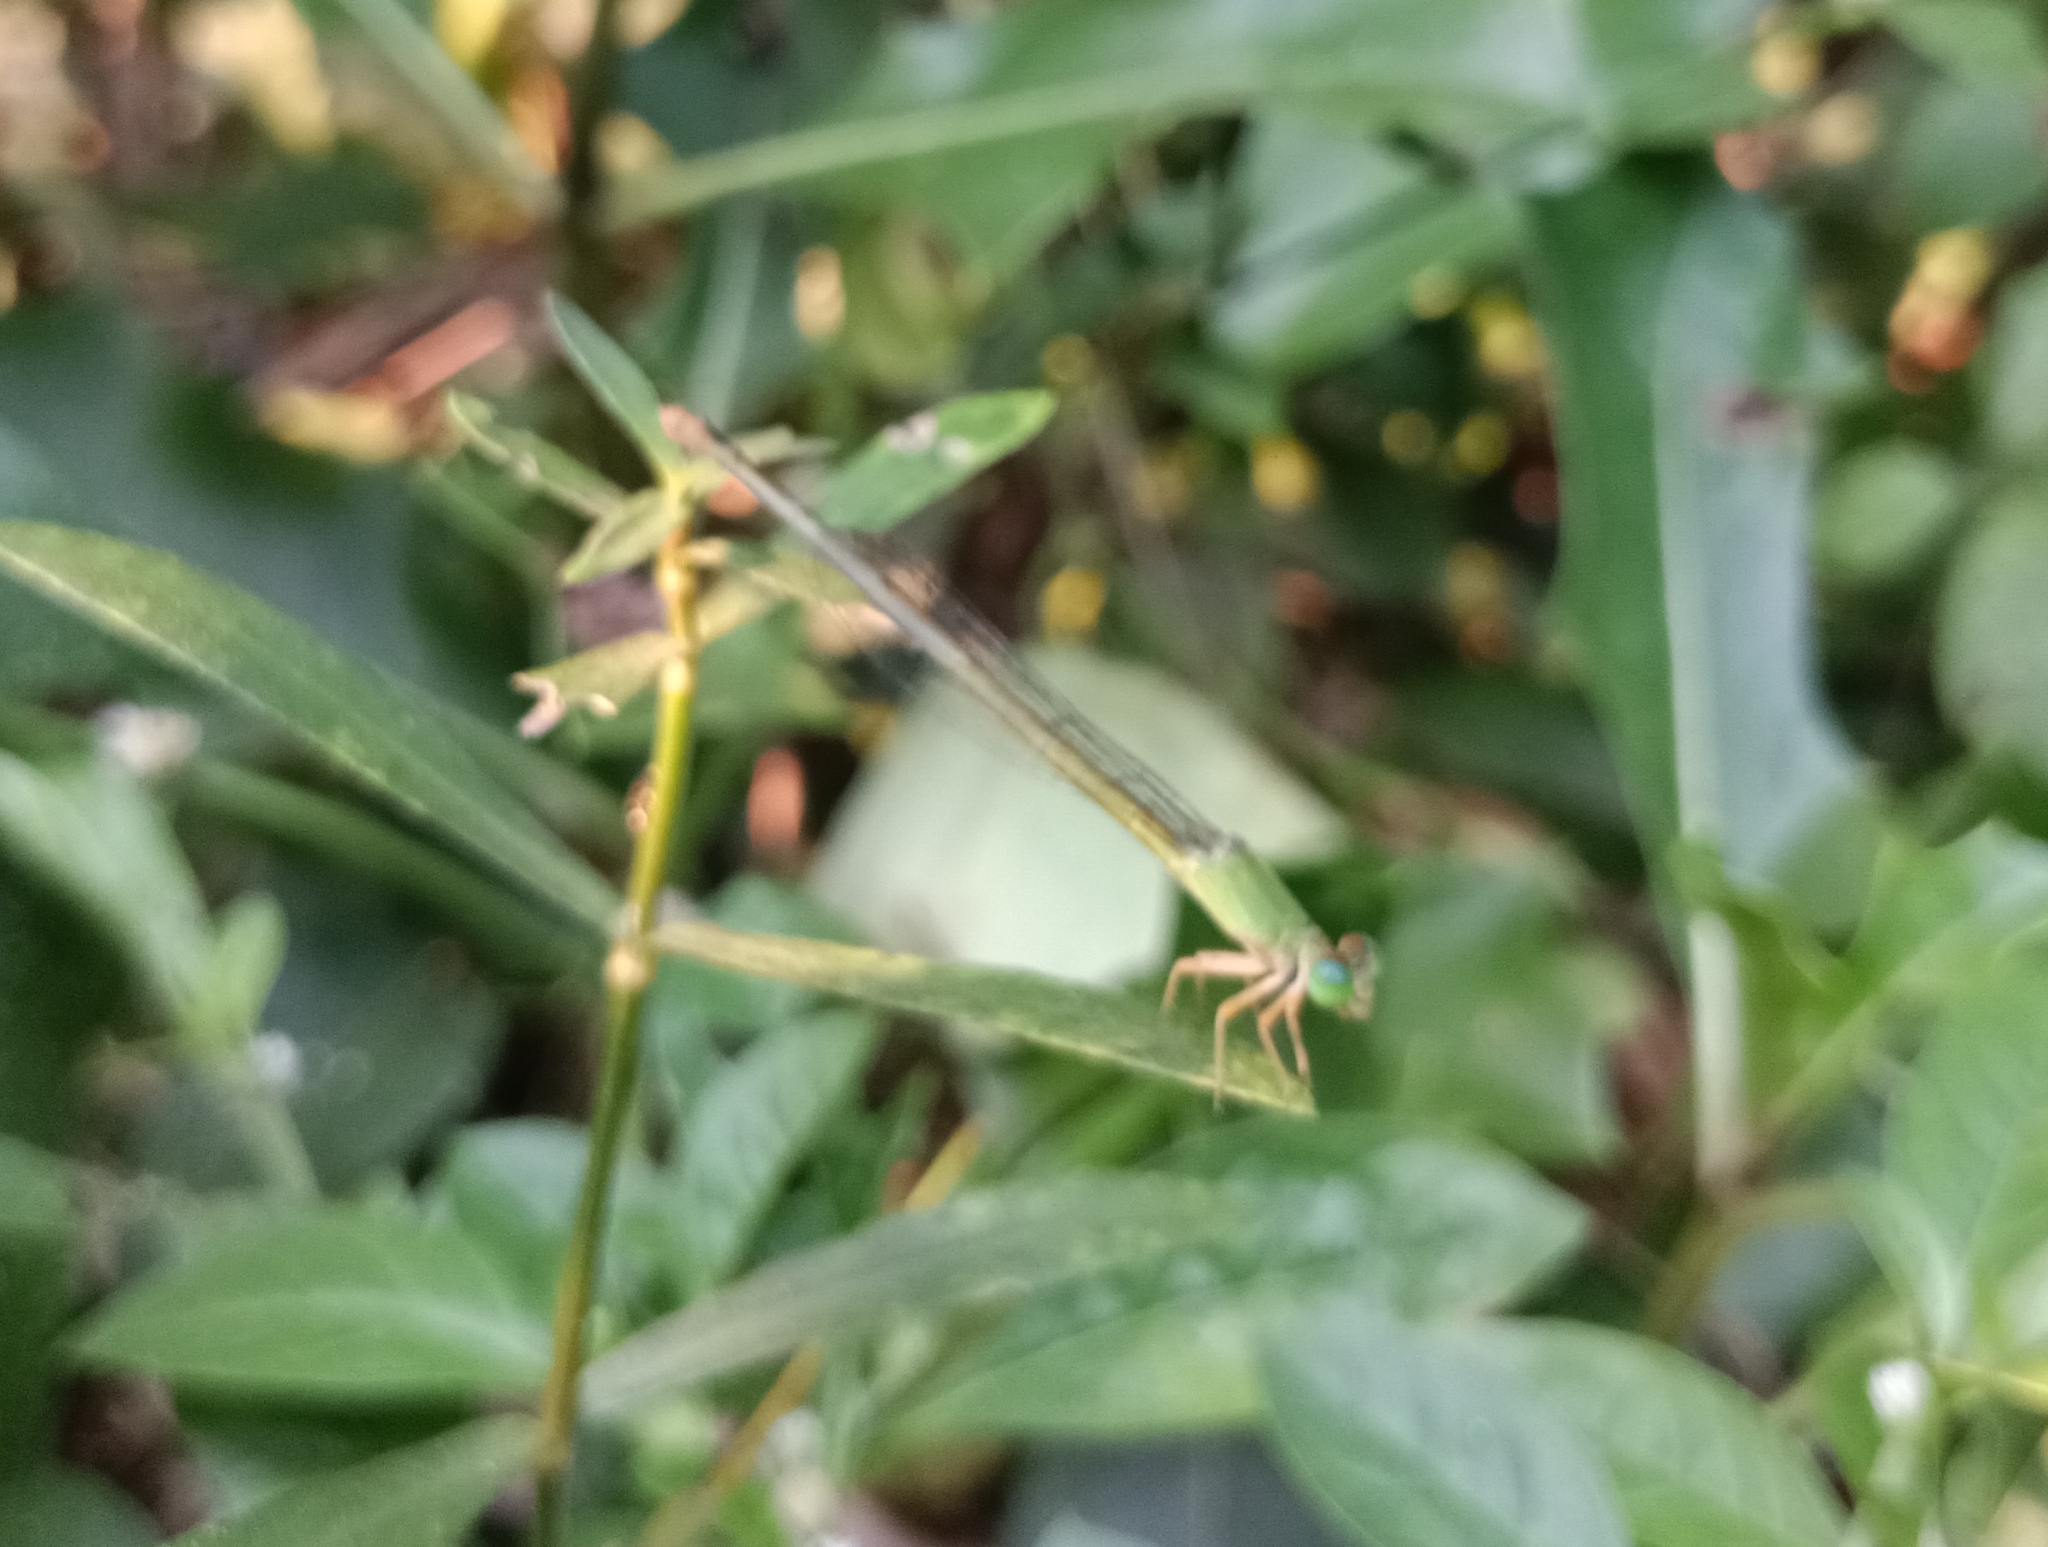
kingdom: Animalia
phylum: Arthropoda
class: Insecta
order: Odonata
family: Coenagrionidae
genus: Ceriagrion
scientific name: Ceriagrion coromandelianum
